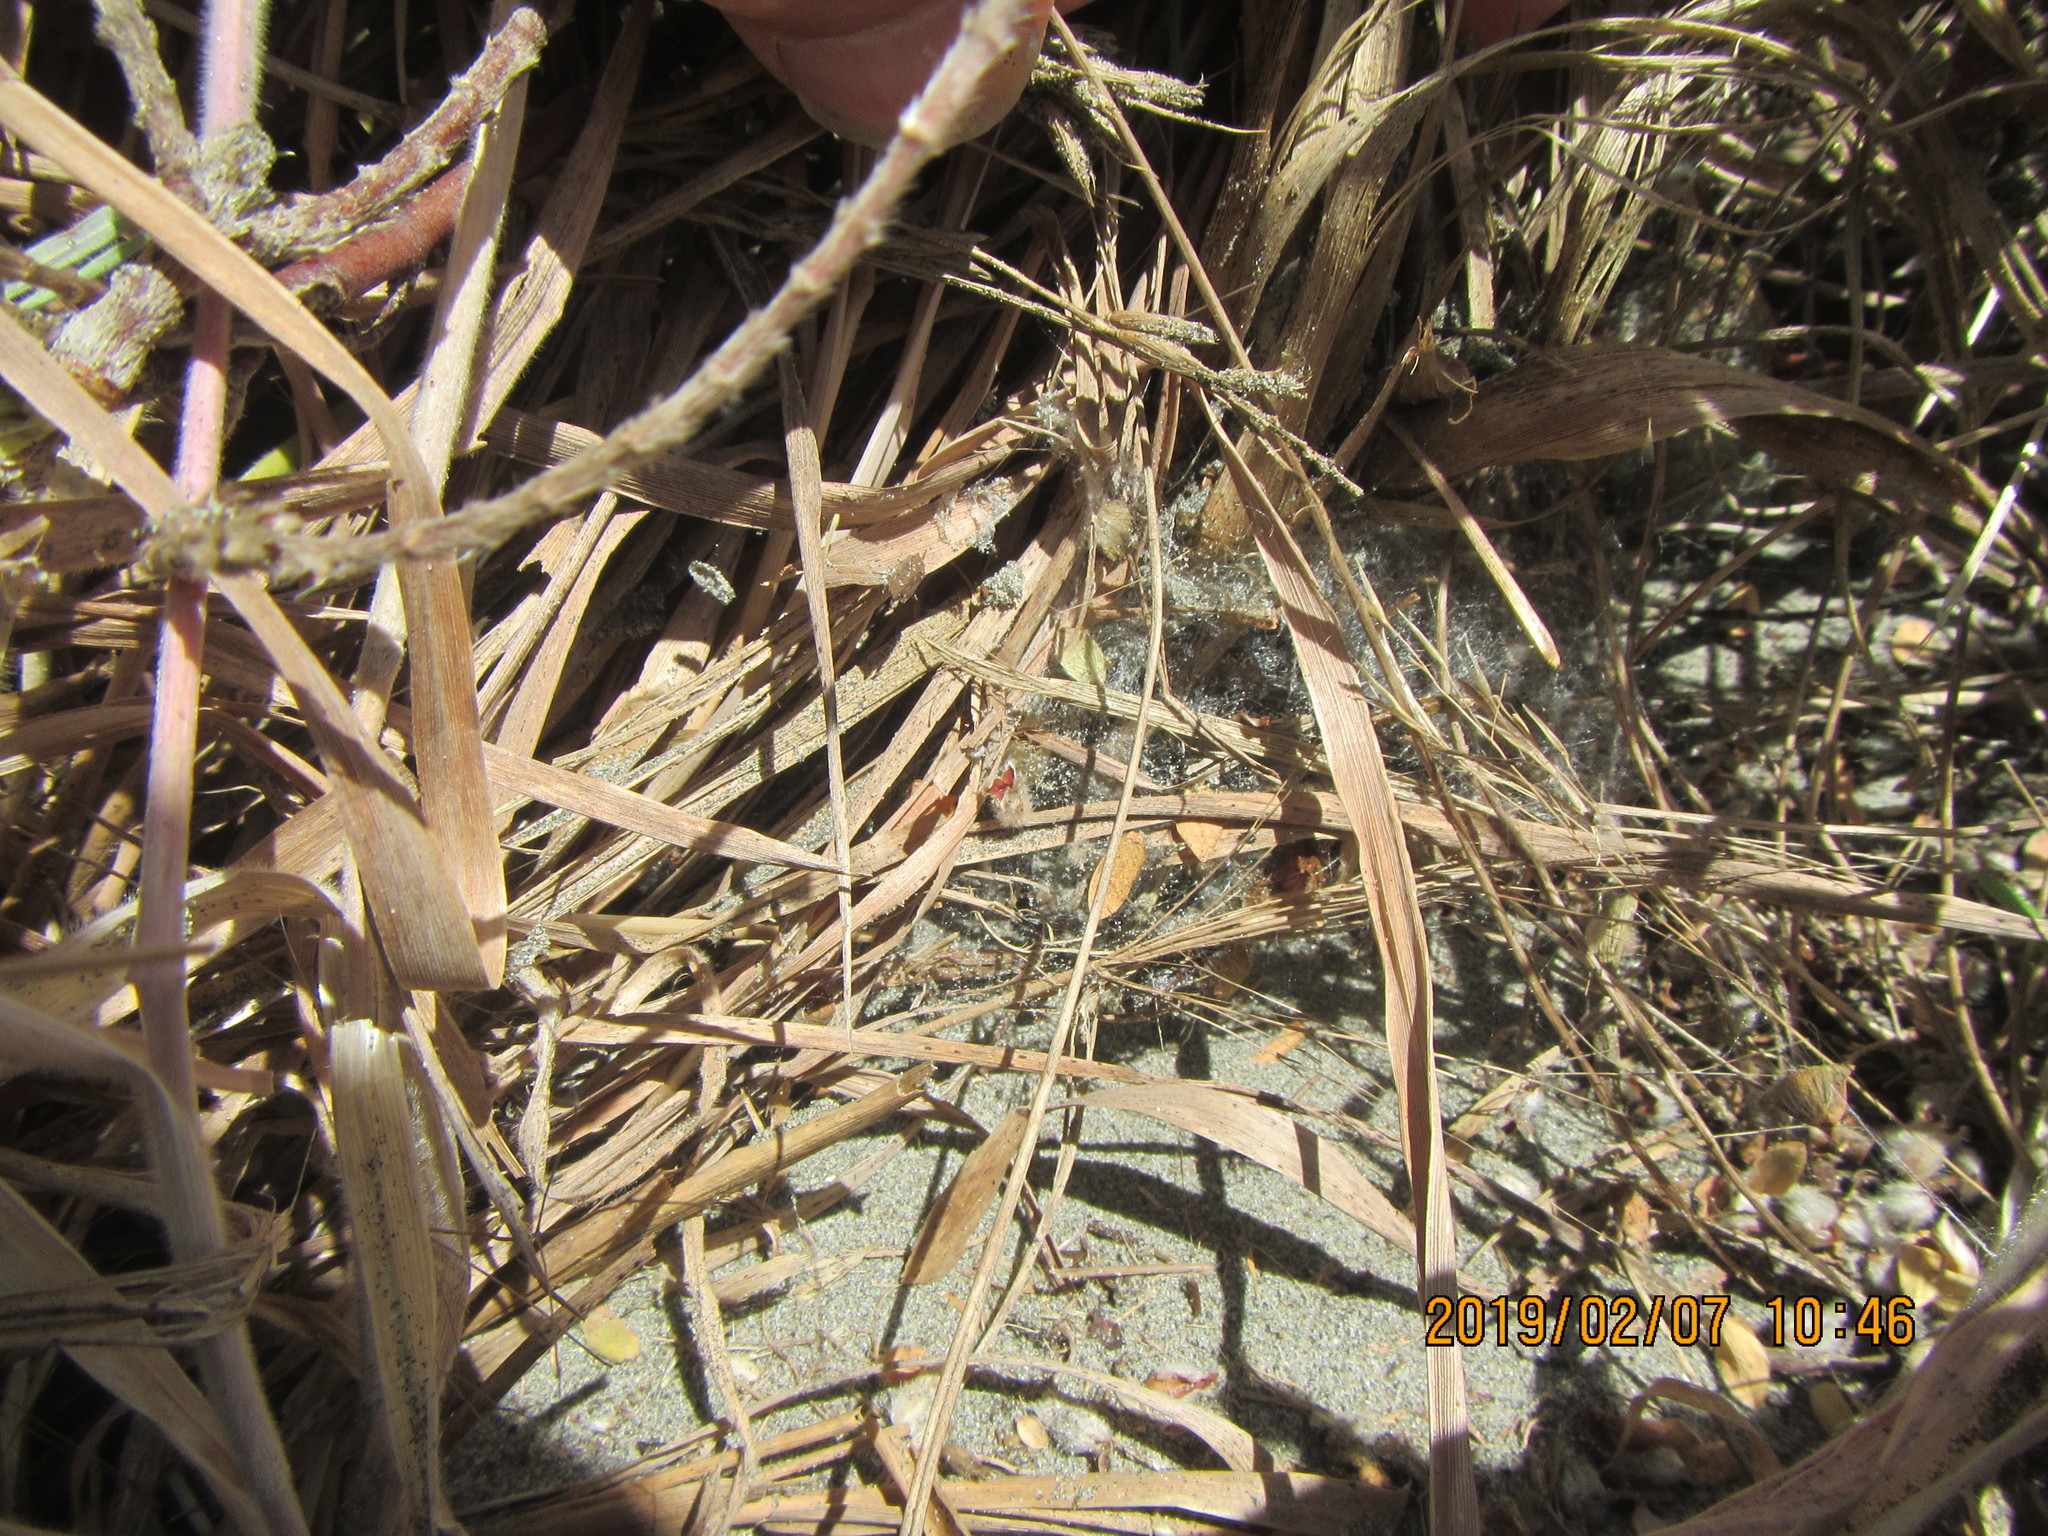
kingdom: Animalia
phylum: Arthropoda
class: Arachnida
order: Araneae
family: Theridiidae
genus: Latrodectus
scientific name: Latrodectus katipo
